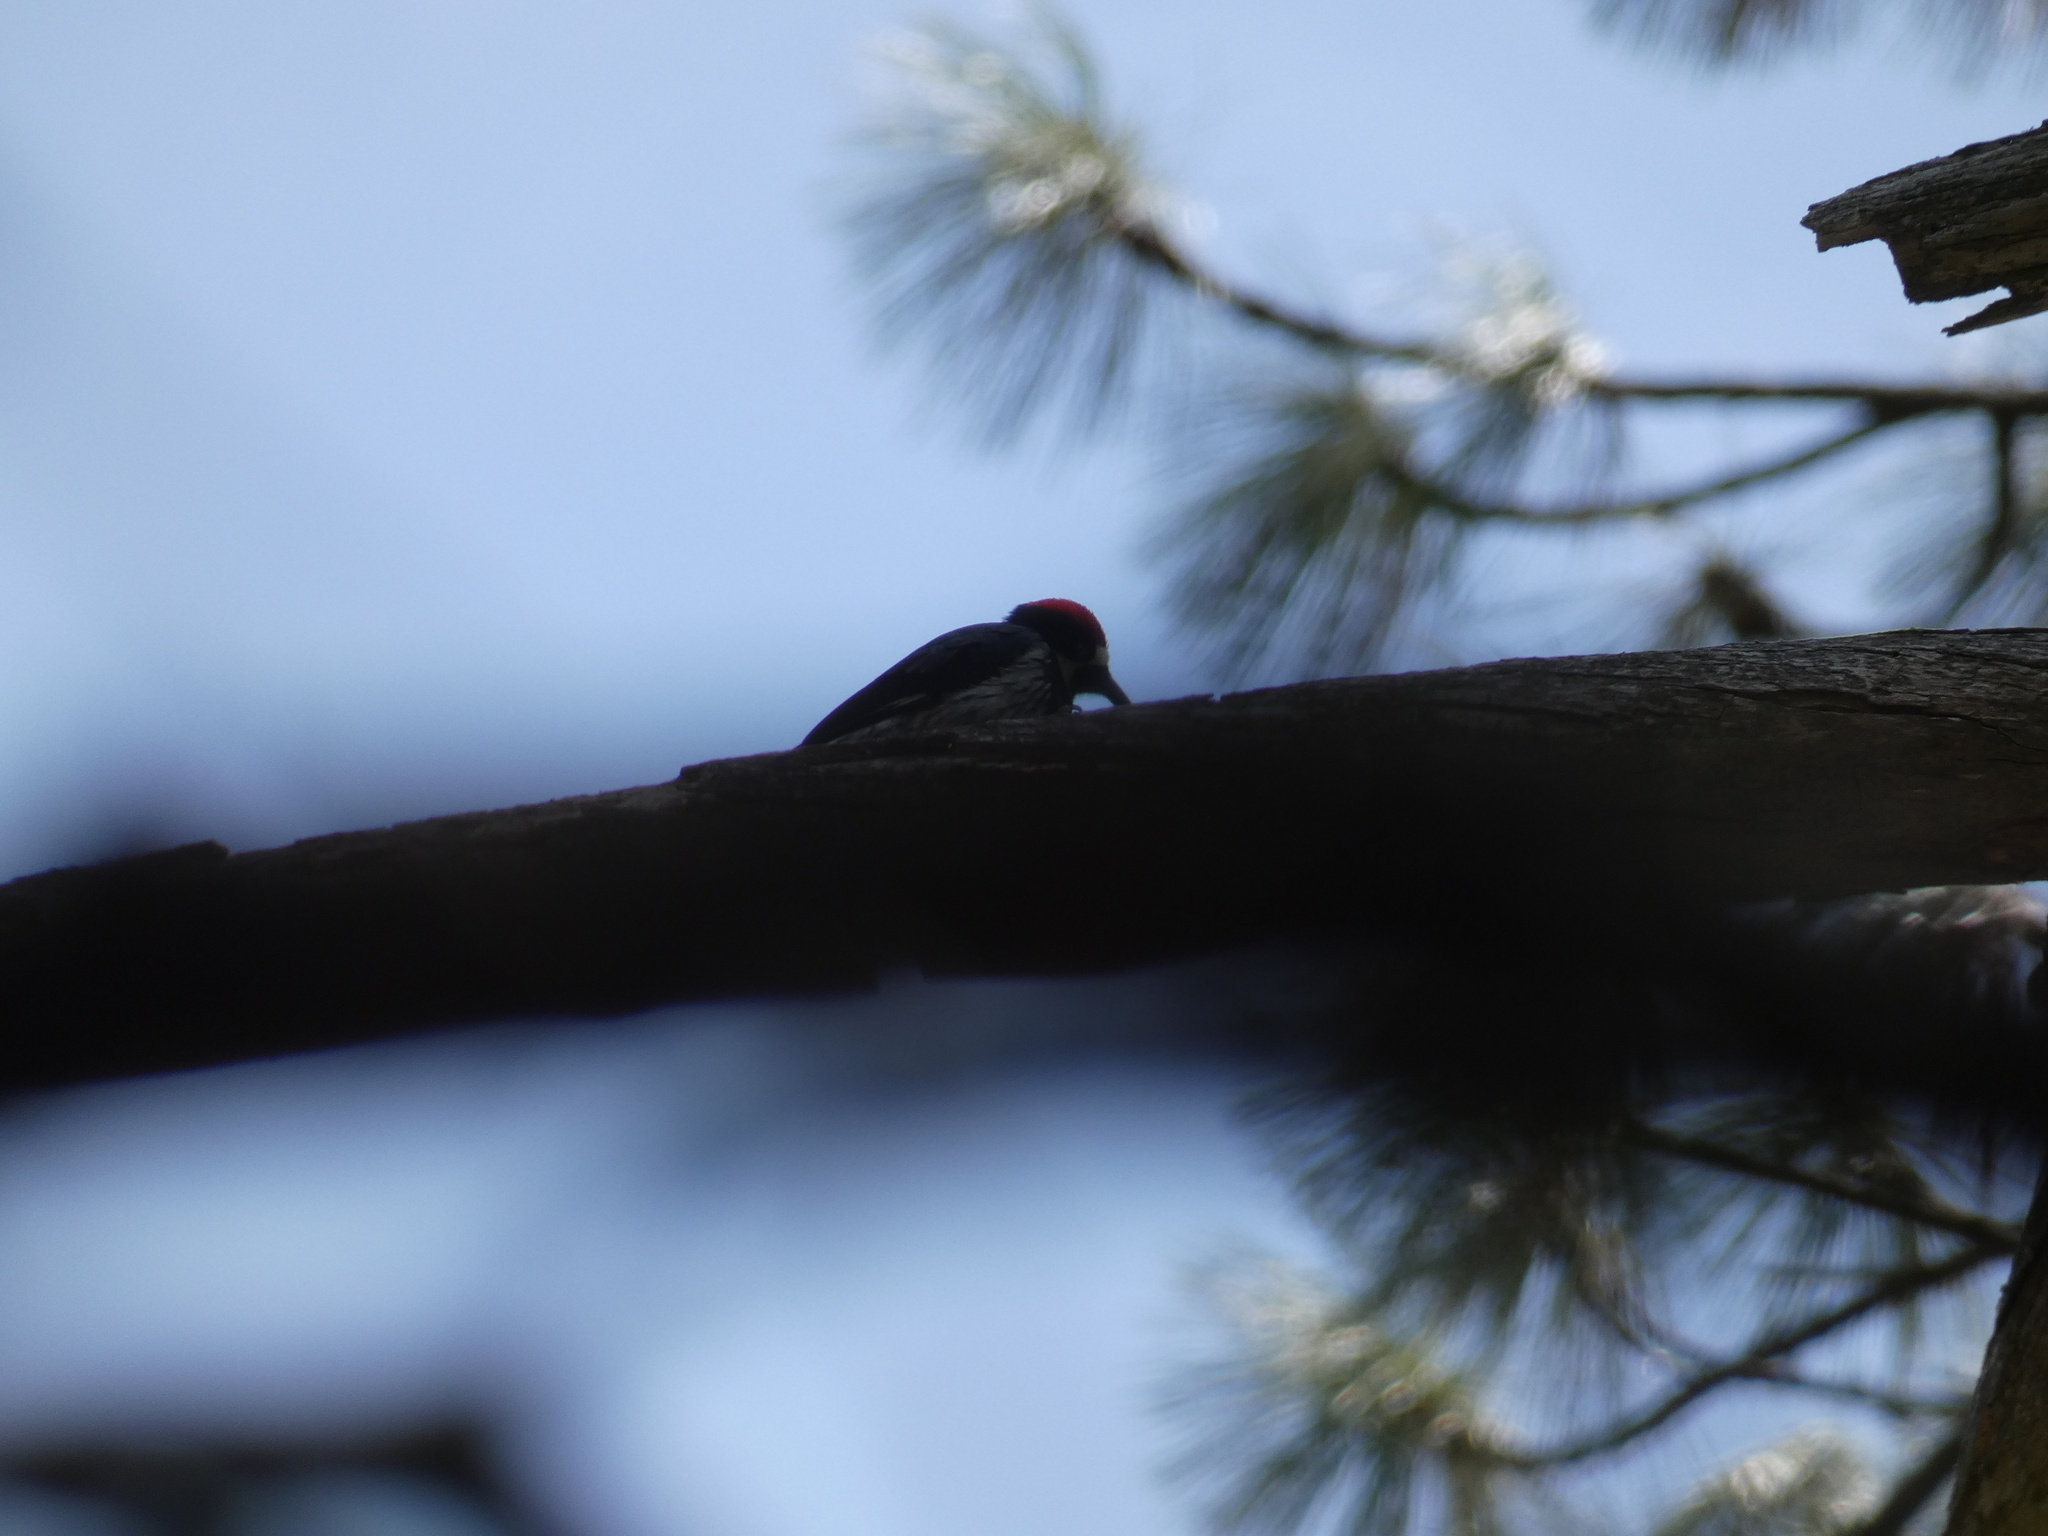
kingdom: Animalia
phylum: Chordata
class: Aves
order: Piciformes
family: Picidae
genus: Melanerpes
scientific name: Melanerpes formicivorus
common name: Acorn woodpecker
